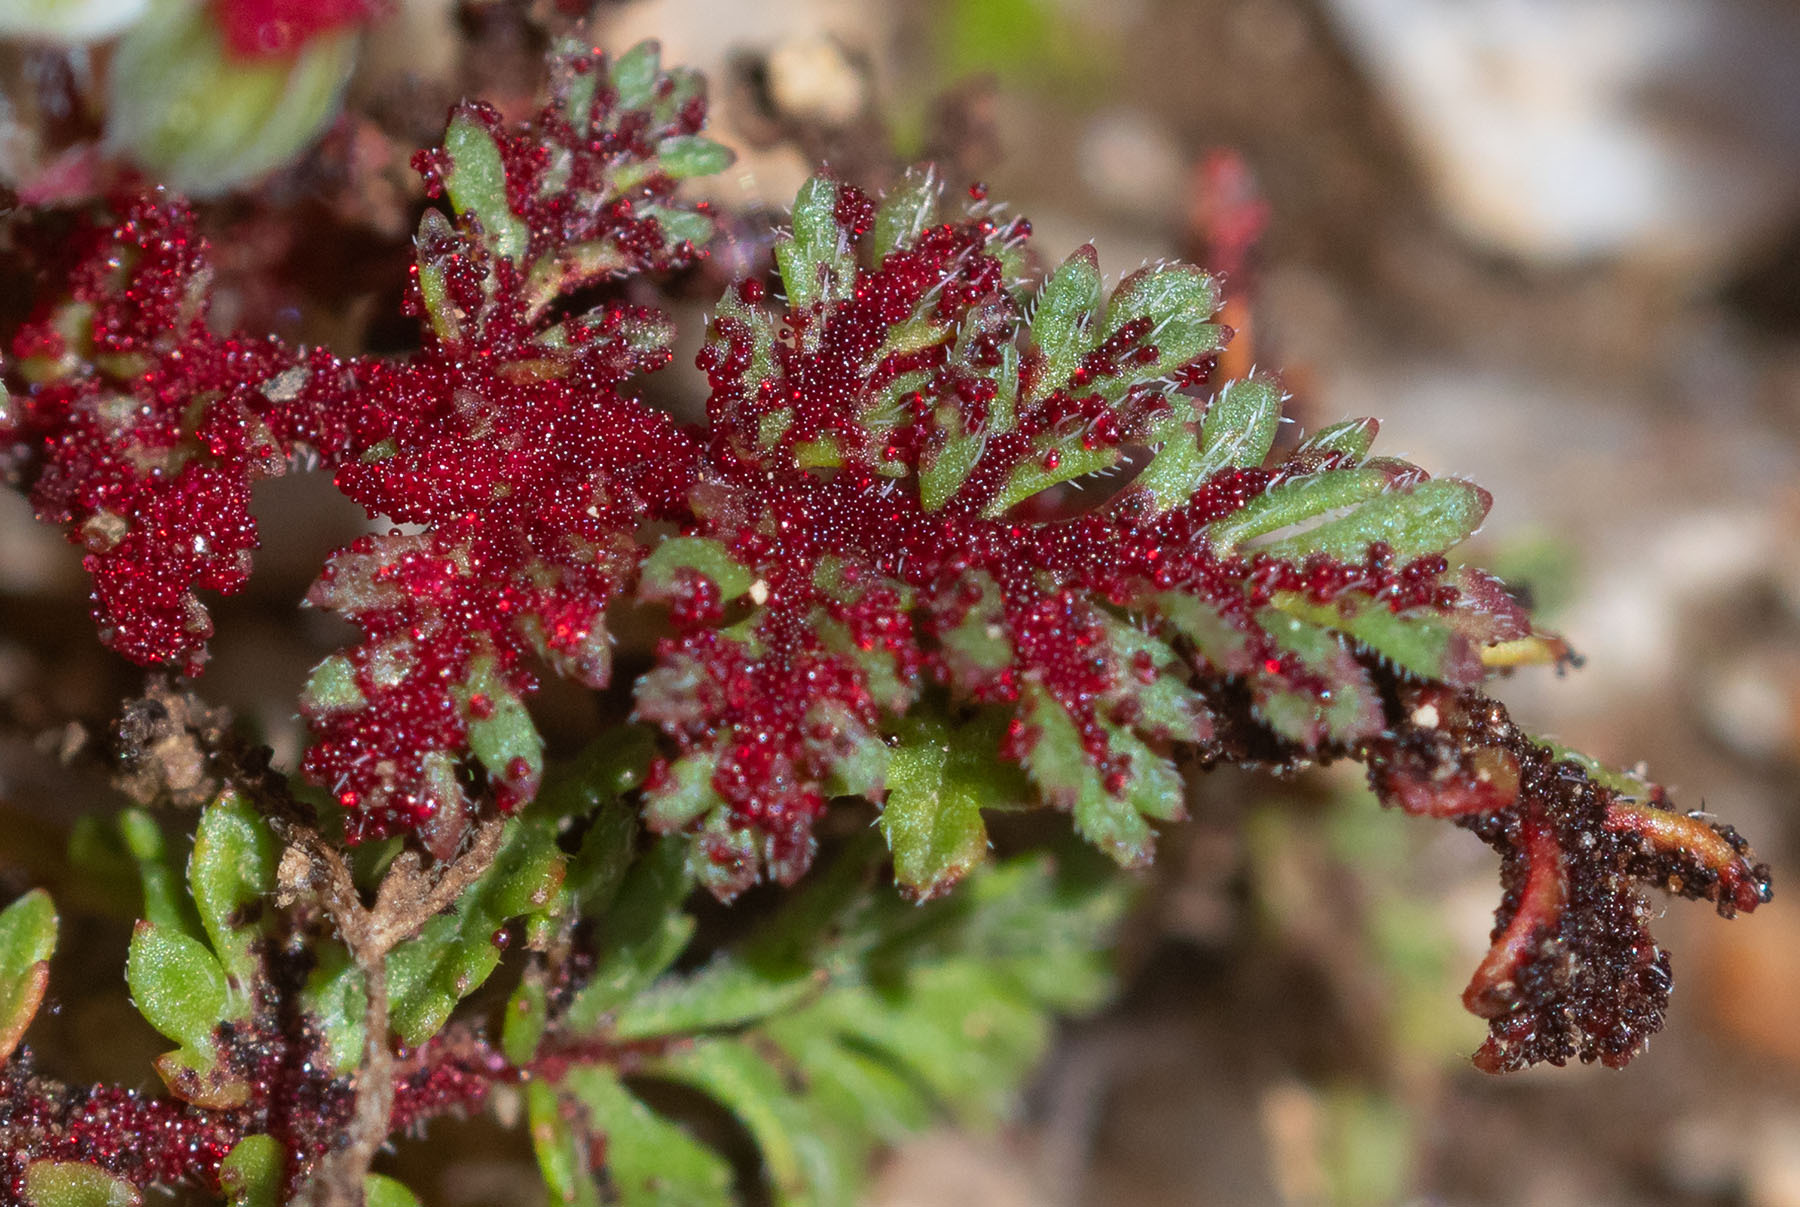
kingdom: Fungi
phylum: Chytridiomycota
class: Chytridiomycetes
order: Chytridiales
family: Synchytriaceae
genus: Synchytrium
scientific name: Synchytrium papillatum
